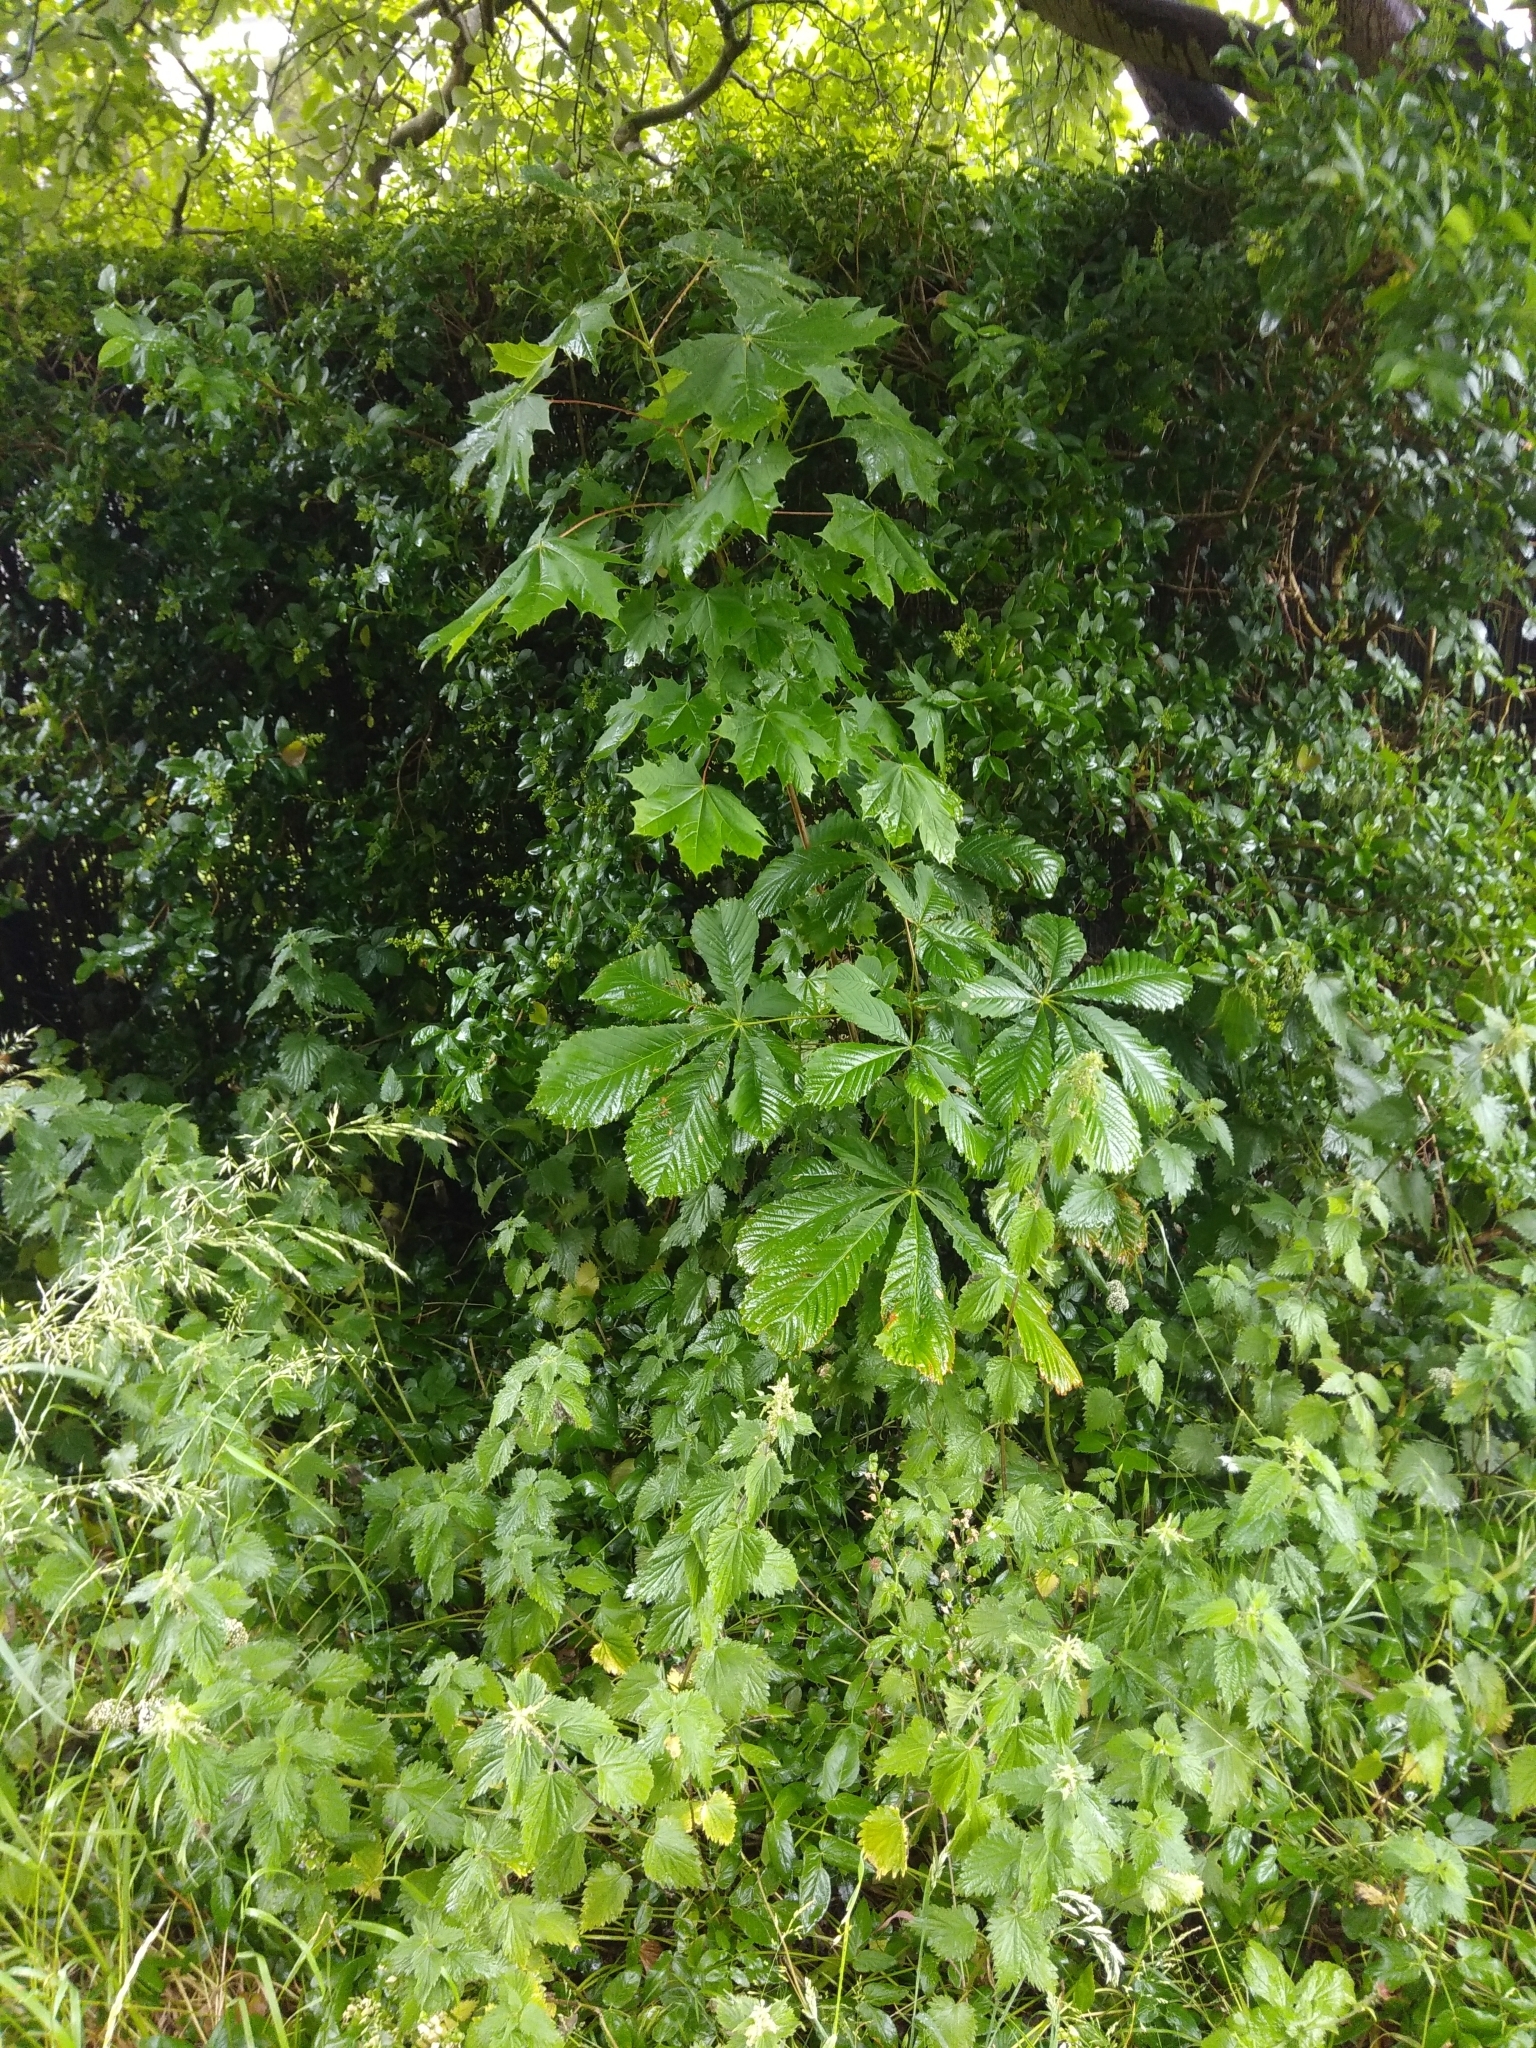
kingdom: Plantae
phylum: Tracheophyta
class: Magnoliopsida
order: Sapindales
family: Sapindaceae
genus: Aesculus
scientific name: Aesculus hippocastanum
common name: Horse-chestnut
